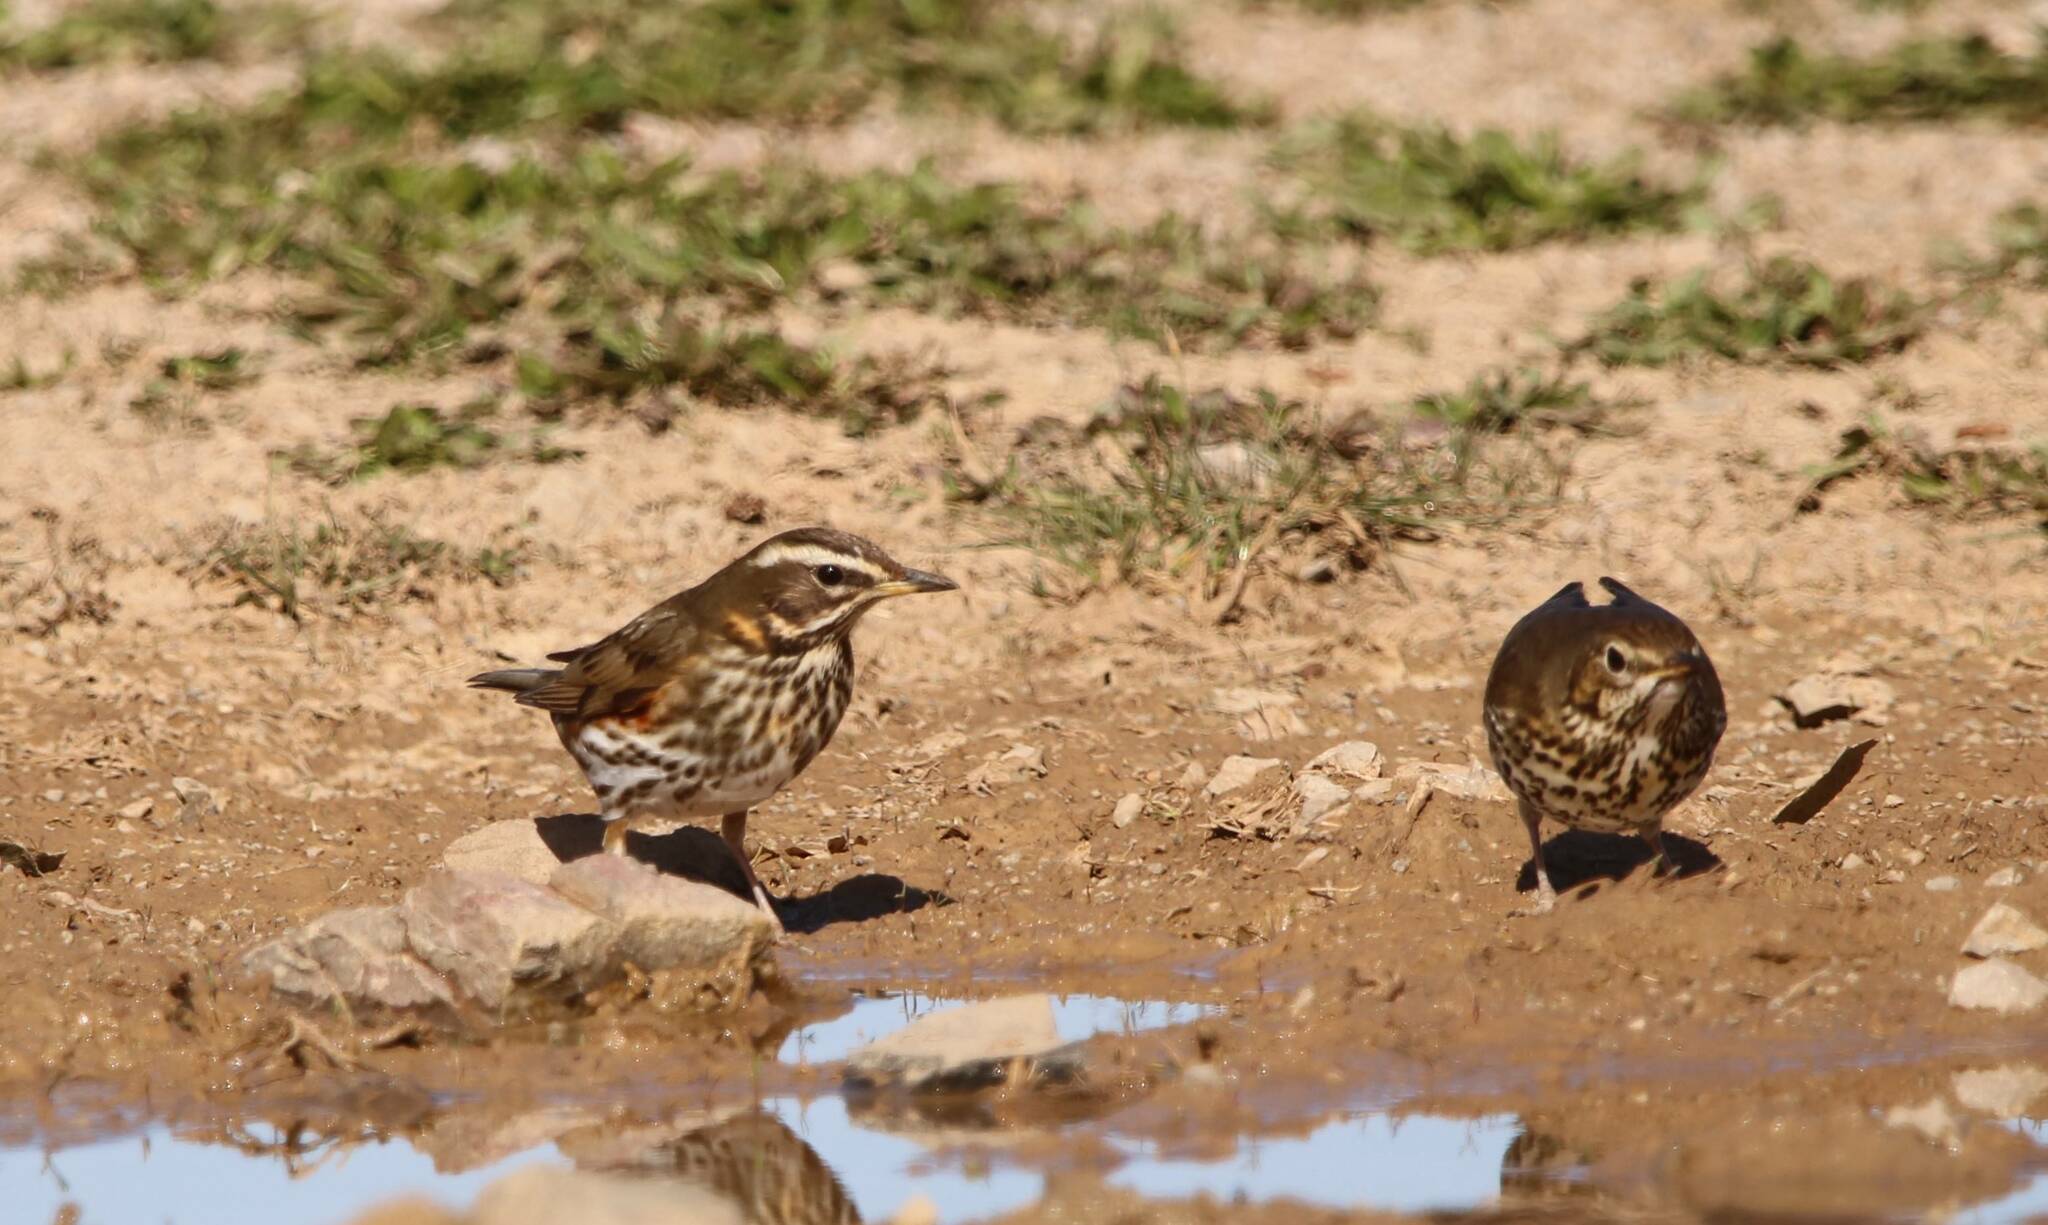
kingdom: Animalia
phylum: Chordata
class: Aves
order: Passeriformes
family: Turdidae
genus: Turdus
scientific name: Turdus iliacus
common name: Redwing
